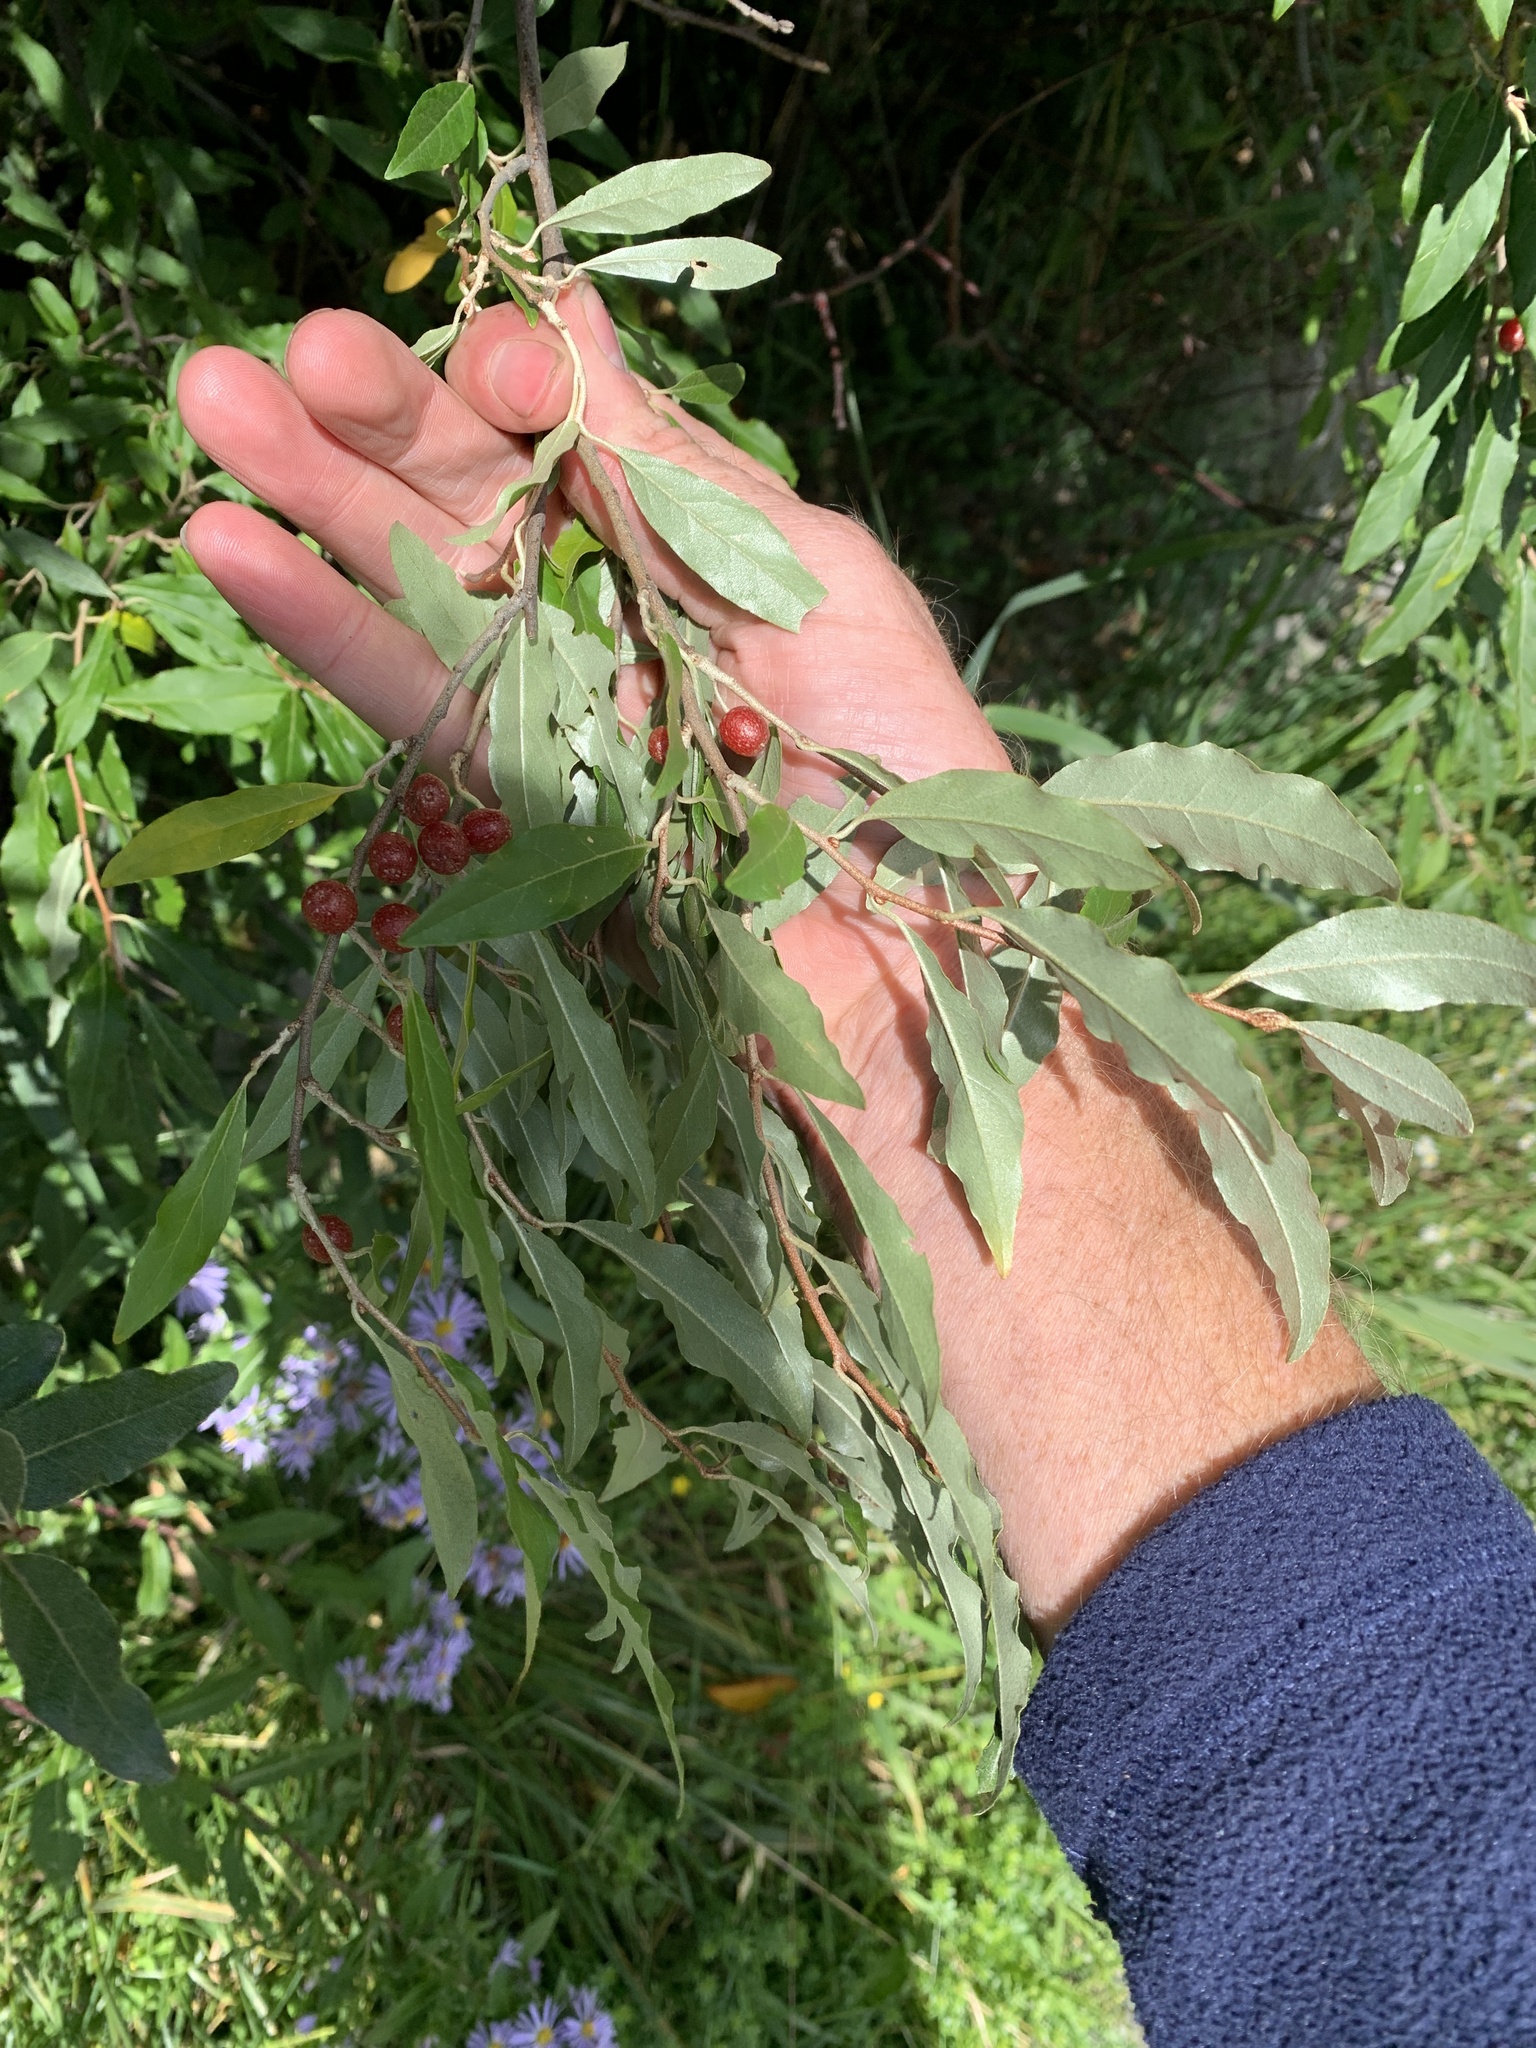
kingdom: Plantae
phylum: Tracheophyta
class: Magnoliopsida
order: Rosales
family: Elaeagnaceae
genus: Elaeagnus
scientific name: Elaeagnus umbellata
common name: Autumn olive
